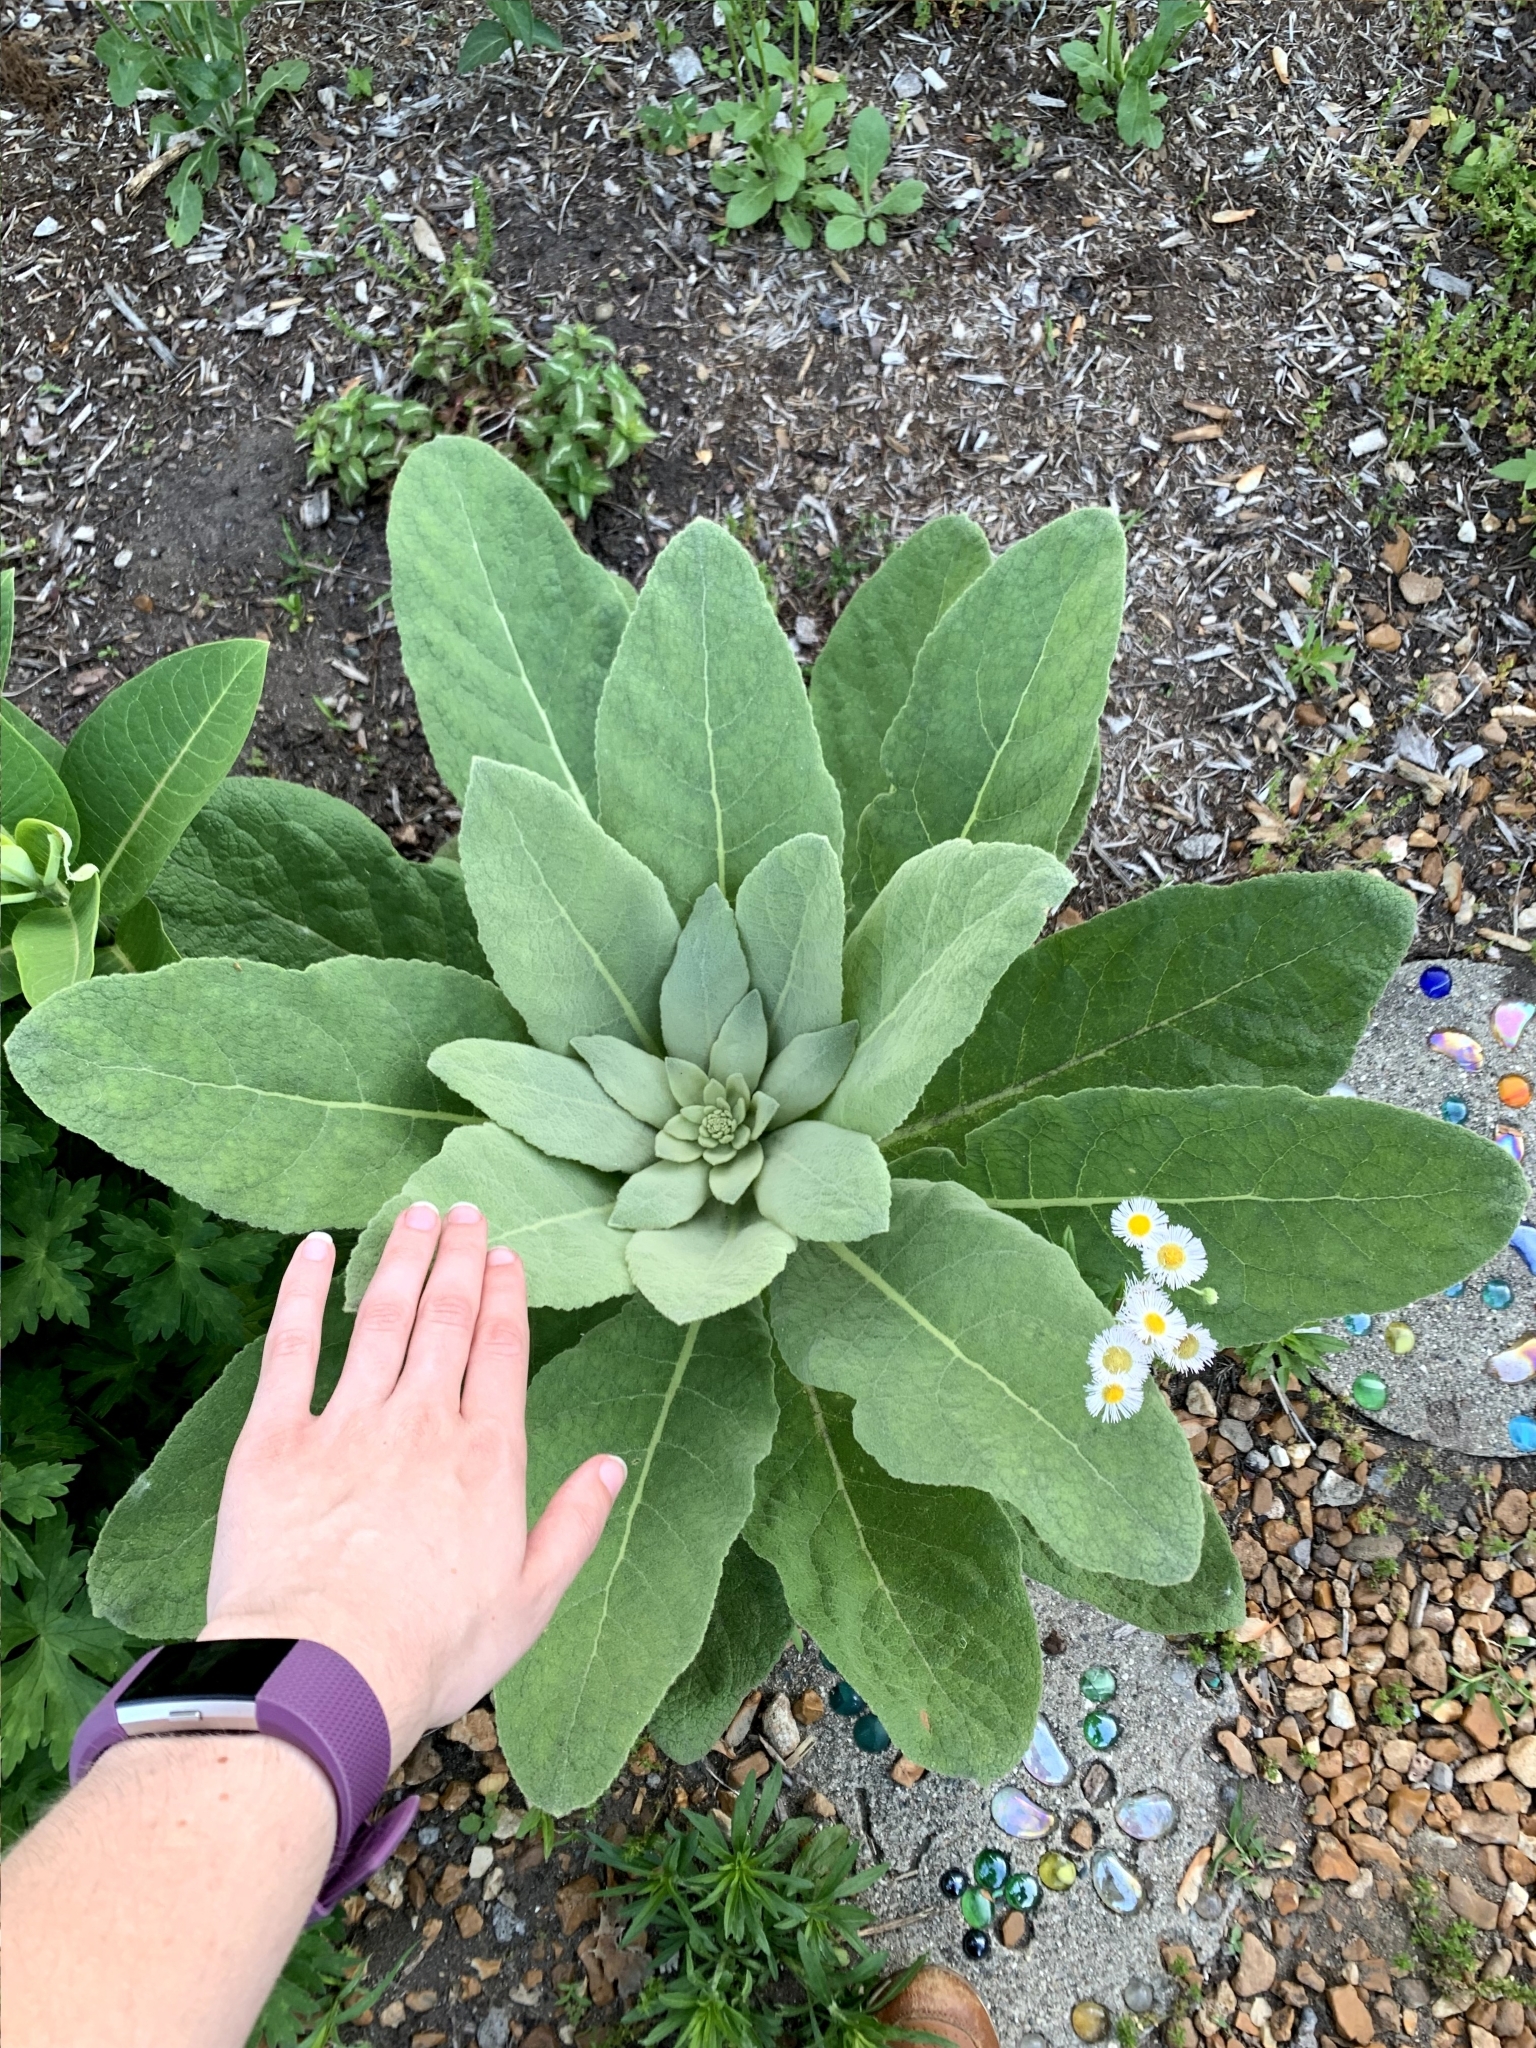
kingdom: Plantae
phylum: Tracheophyta
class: Magnoliopsida
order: Lamiales
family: Scrophulariaceae
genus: Verbascum
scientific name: Verbascum thapsus
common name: Common mullein
